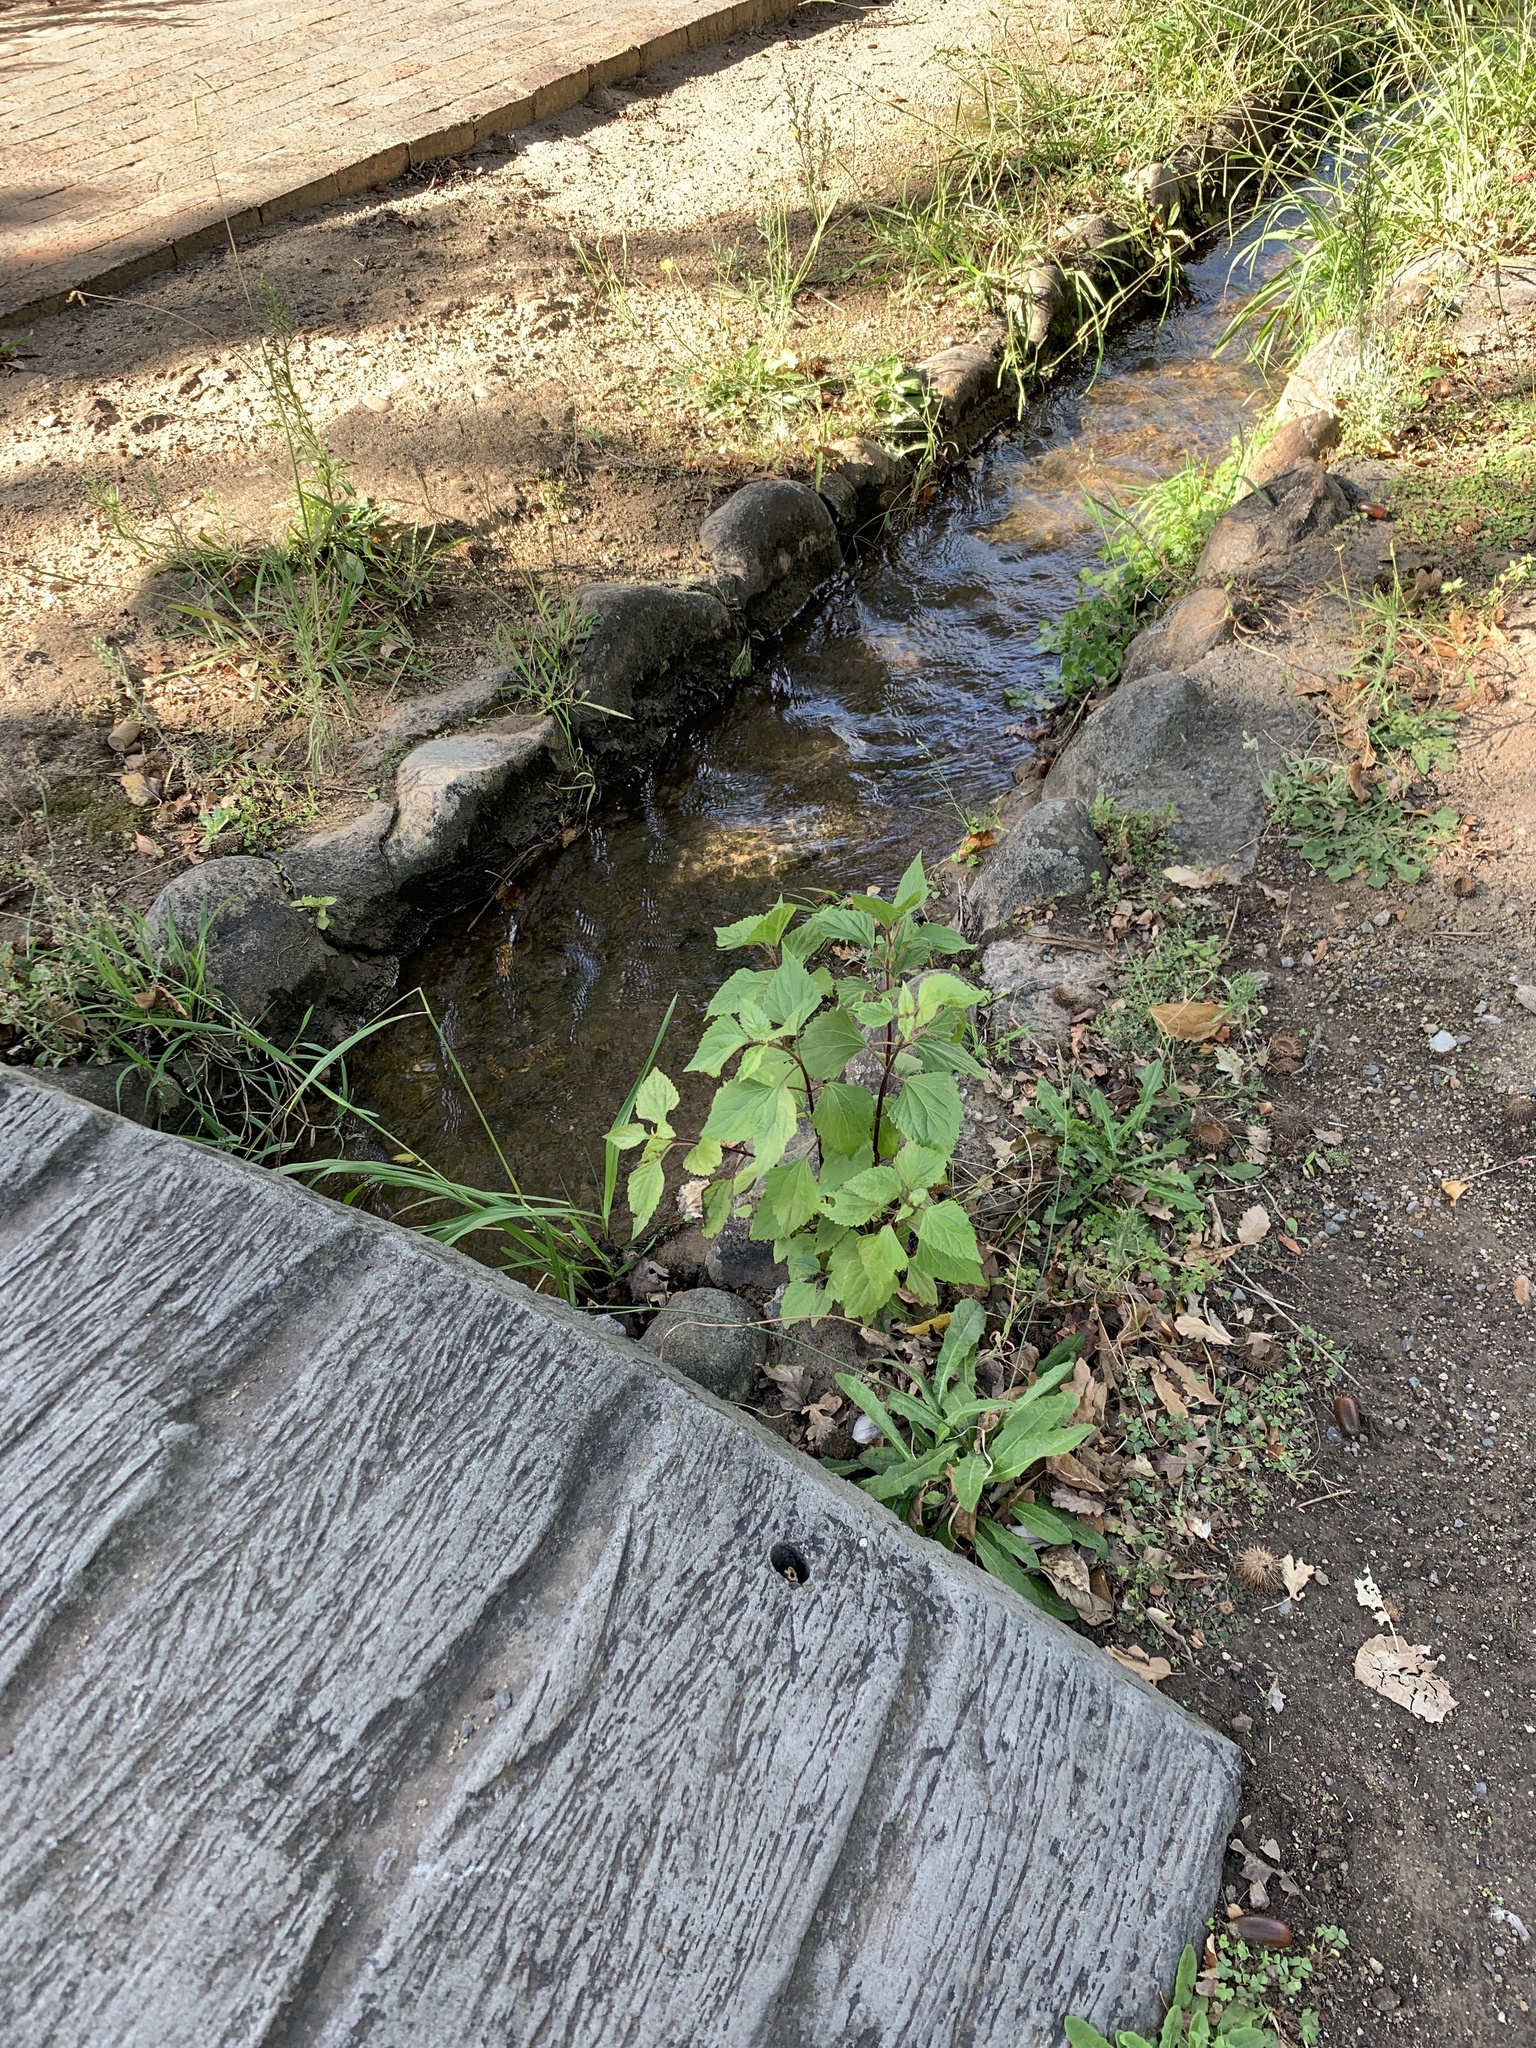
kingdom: Plantae
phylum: Tracheophyta
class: Magnoliopsida
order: Asterales
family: Asteraceae
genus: Ageratina
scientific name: Ageratina adenophora
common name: Sticky snakeroot
